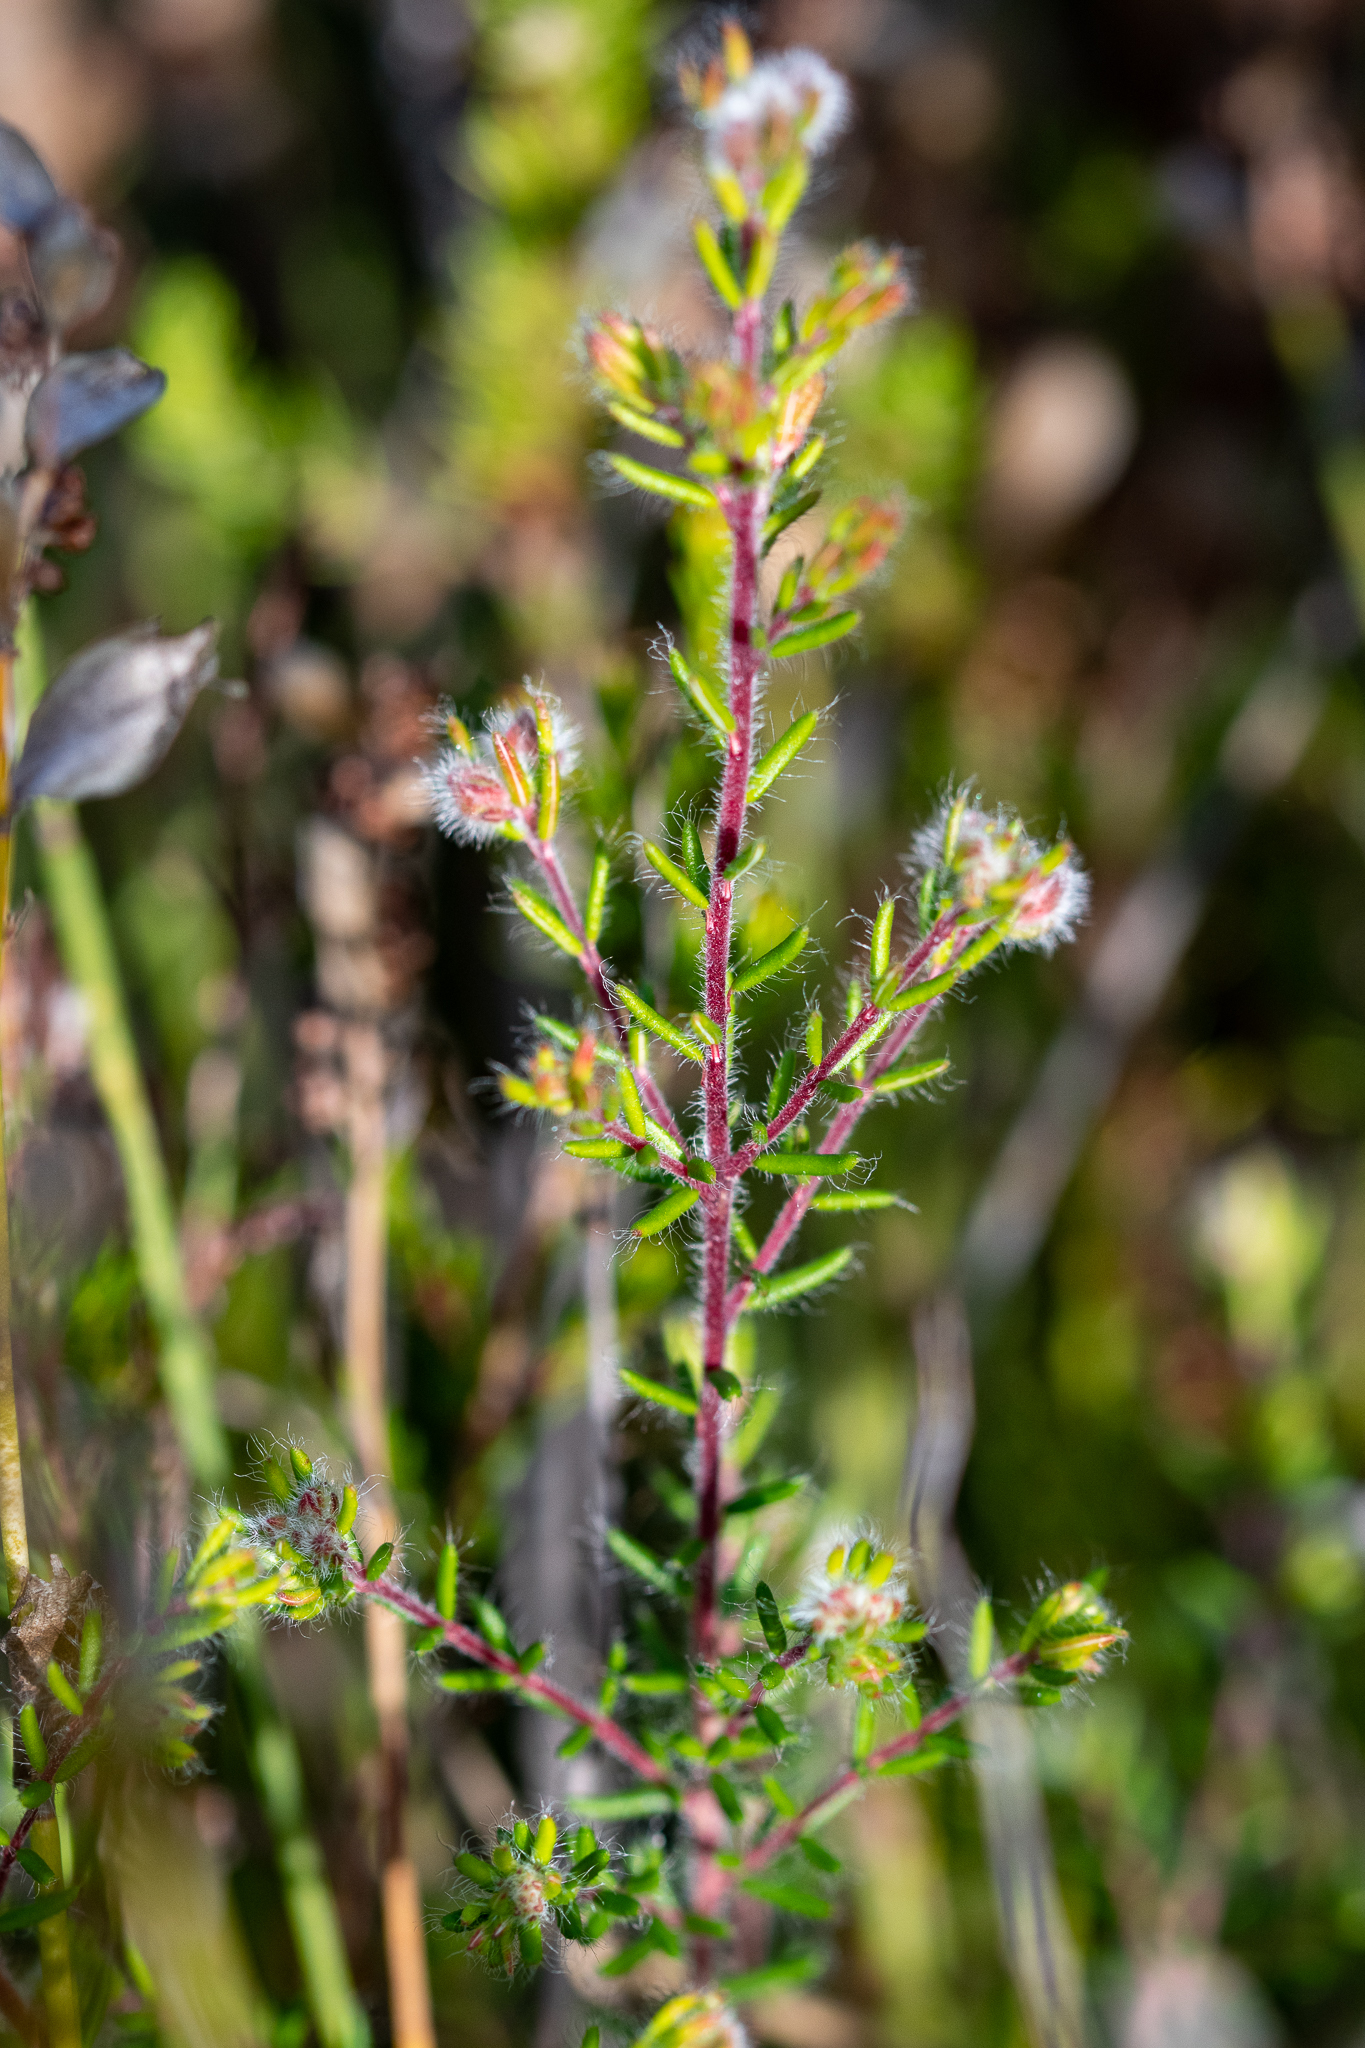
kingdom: Plantae
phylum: Tracheophyta
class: Magnoliopsida
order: Ericales
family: Ericaceae
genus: Erica
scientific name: Erica bruniades
